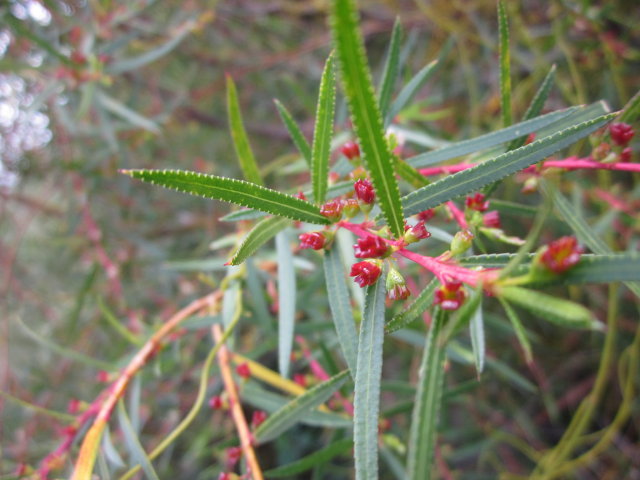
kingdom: Plantae
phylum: Tracheophyta
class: Magnoliopsida
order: Sapindales
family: Rutaceae
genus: Empleurum
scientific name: Empleurum unicapsulare
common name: False buchu
